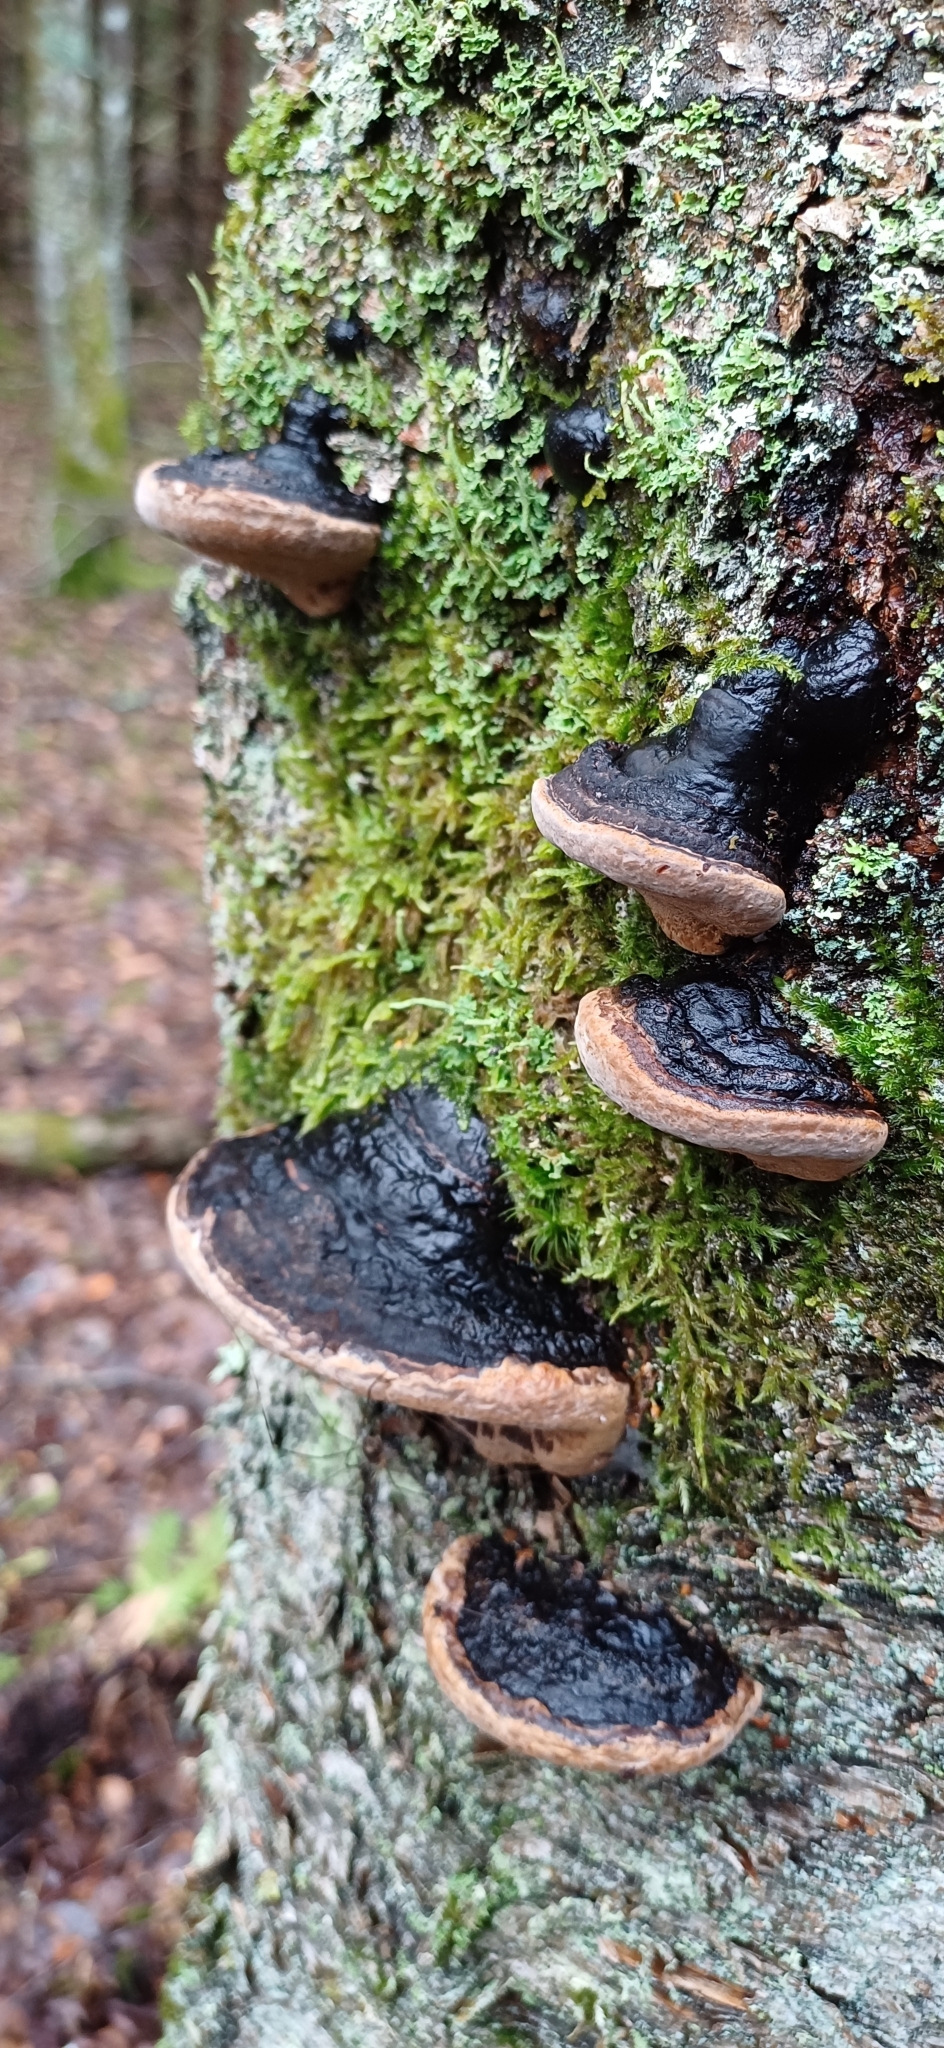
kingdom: Fungi
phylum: Basidiomycota
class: Agaricomycetes
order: Hymenochaetales
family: Hymenochaetaceae
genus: Phellinus
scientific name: Phellinus igniarius
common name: Willow bracket
